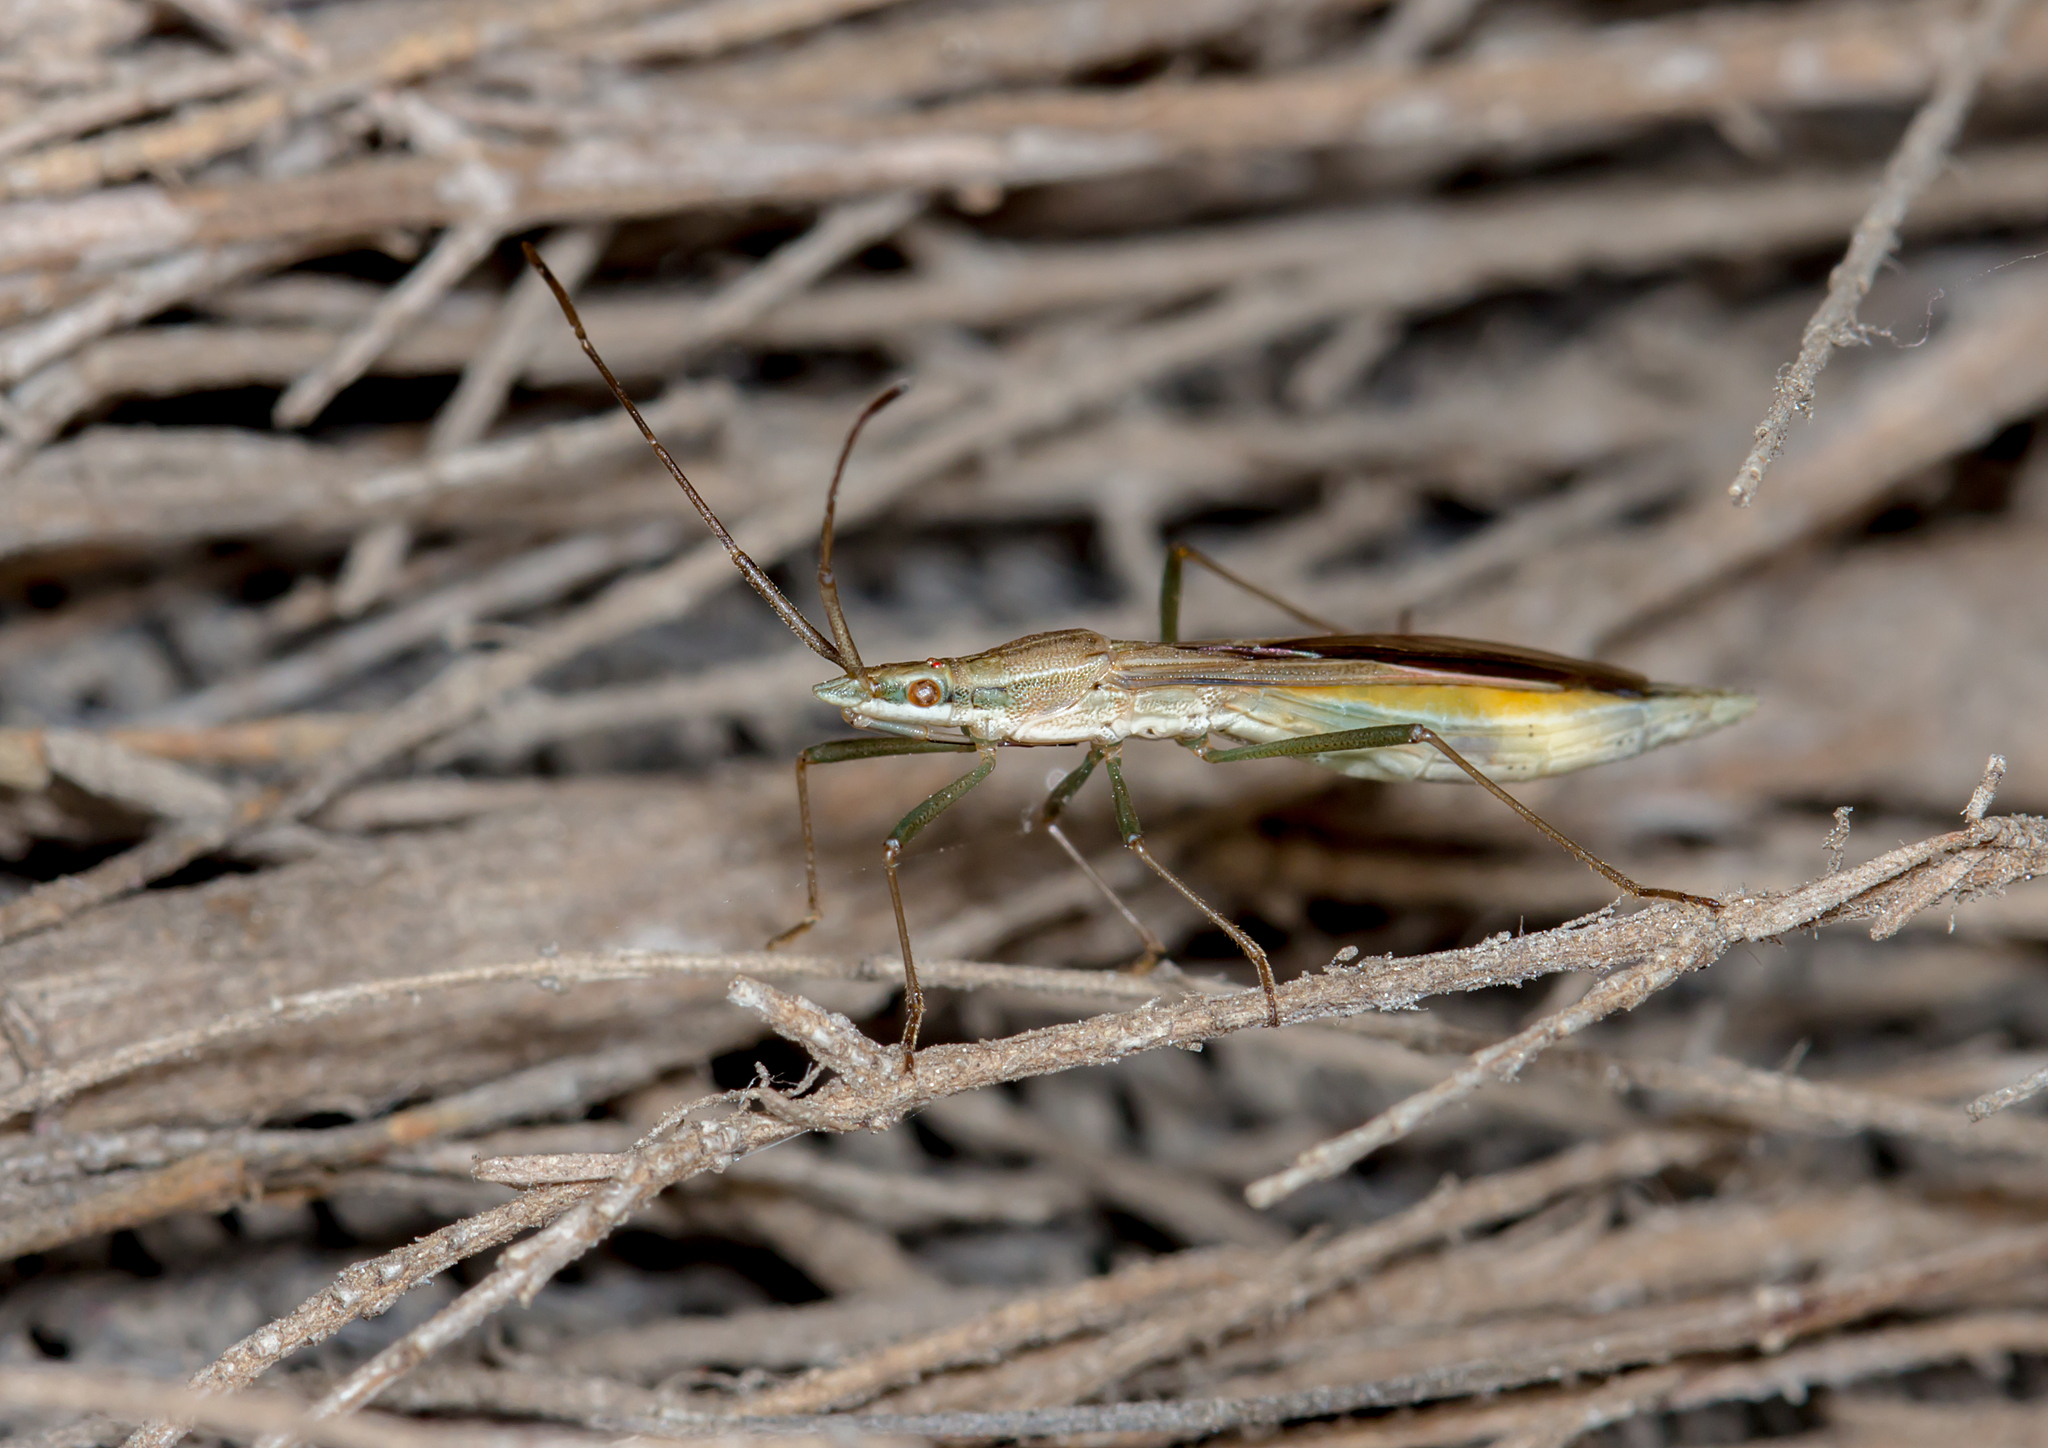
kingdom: Animalia
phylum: Arthropoda
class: Insecta
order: Hemiptera
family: Alydidae
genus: Mutusca
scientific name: Mutusca brevicornis
